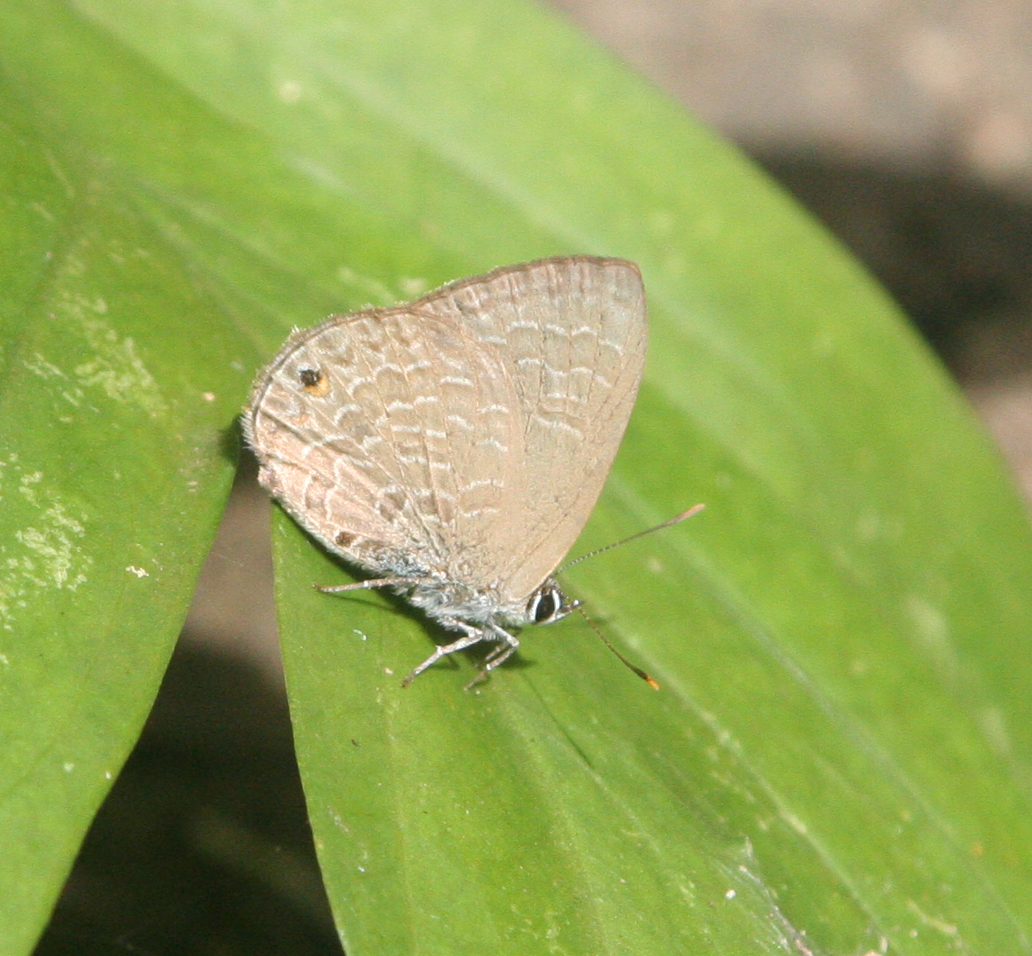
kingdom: Animalia
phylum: Arthropoda
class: Insecta
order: Lepidoptera
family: Lycaenidae
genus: Anthene
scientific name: Anthene emolus
